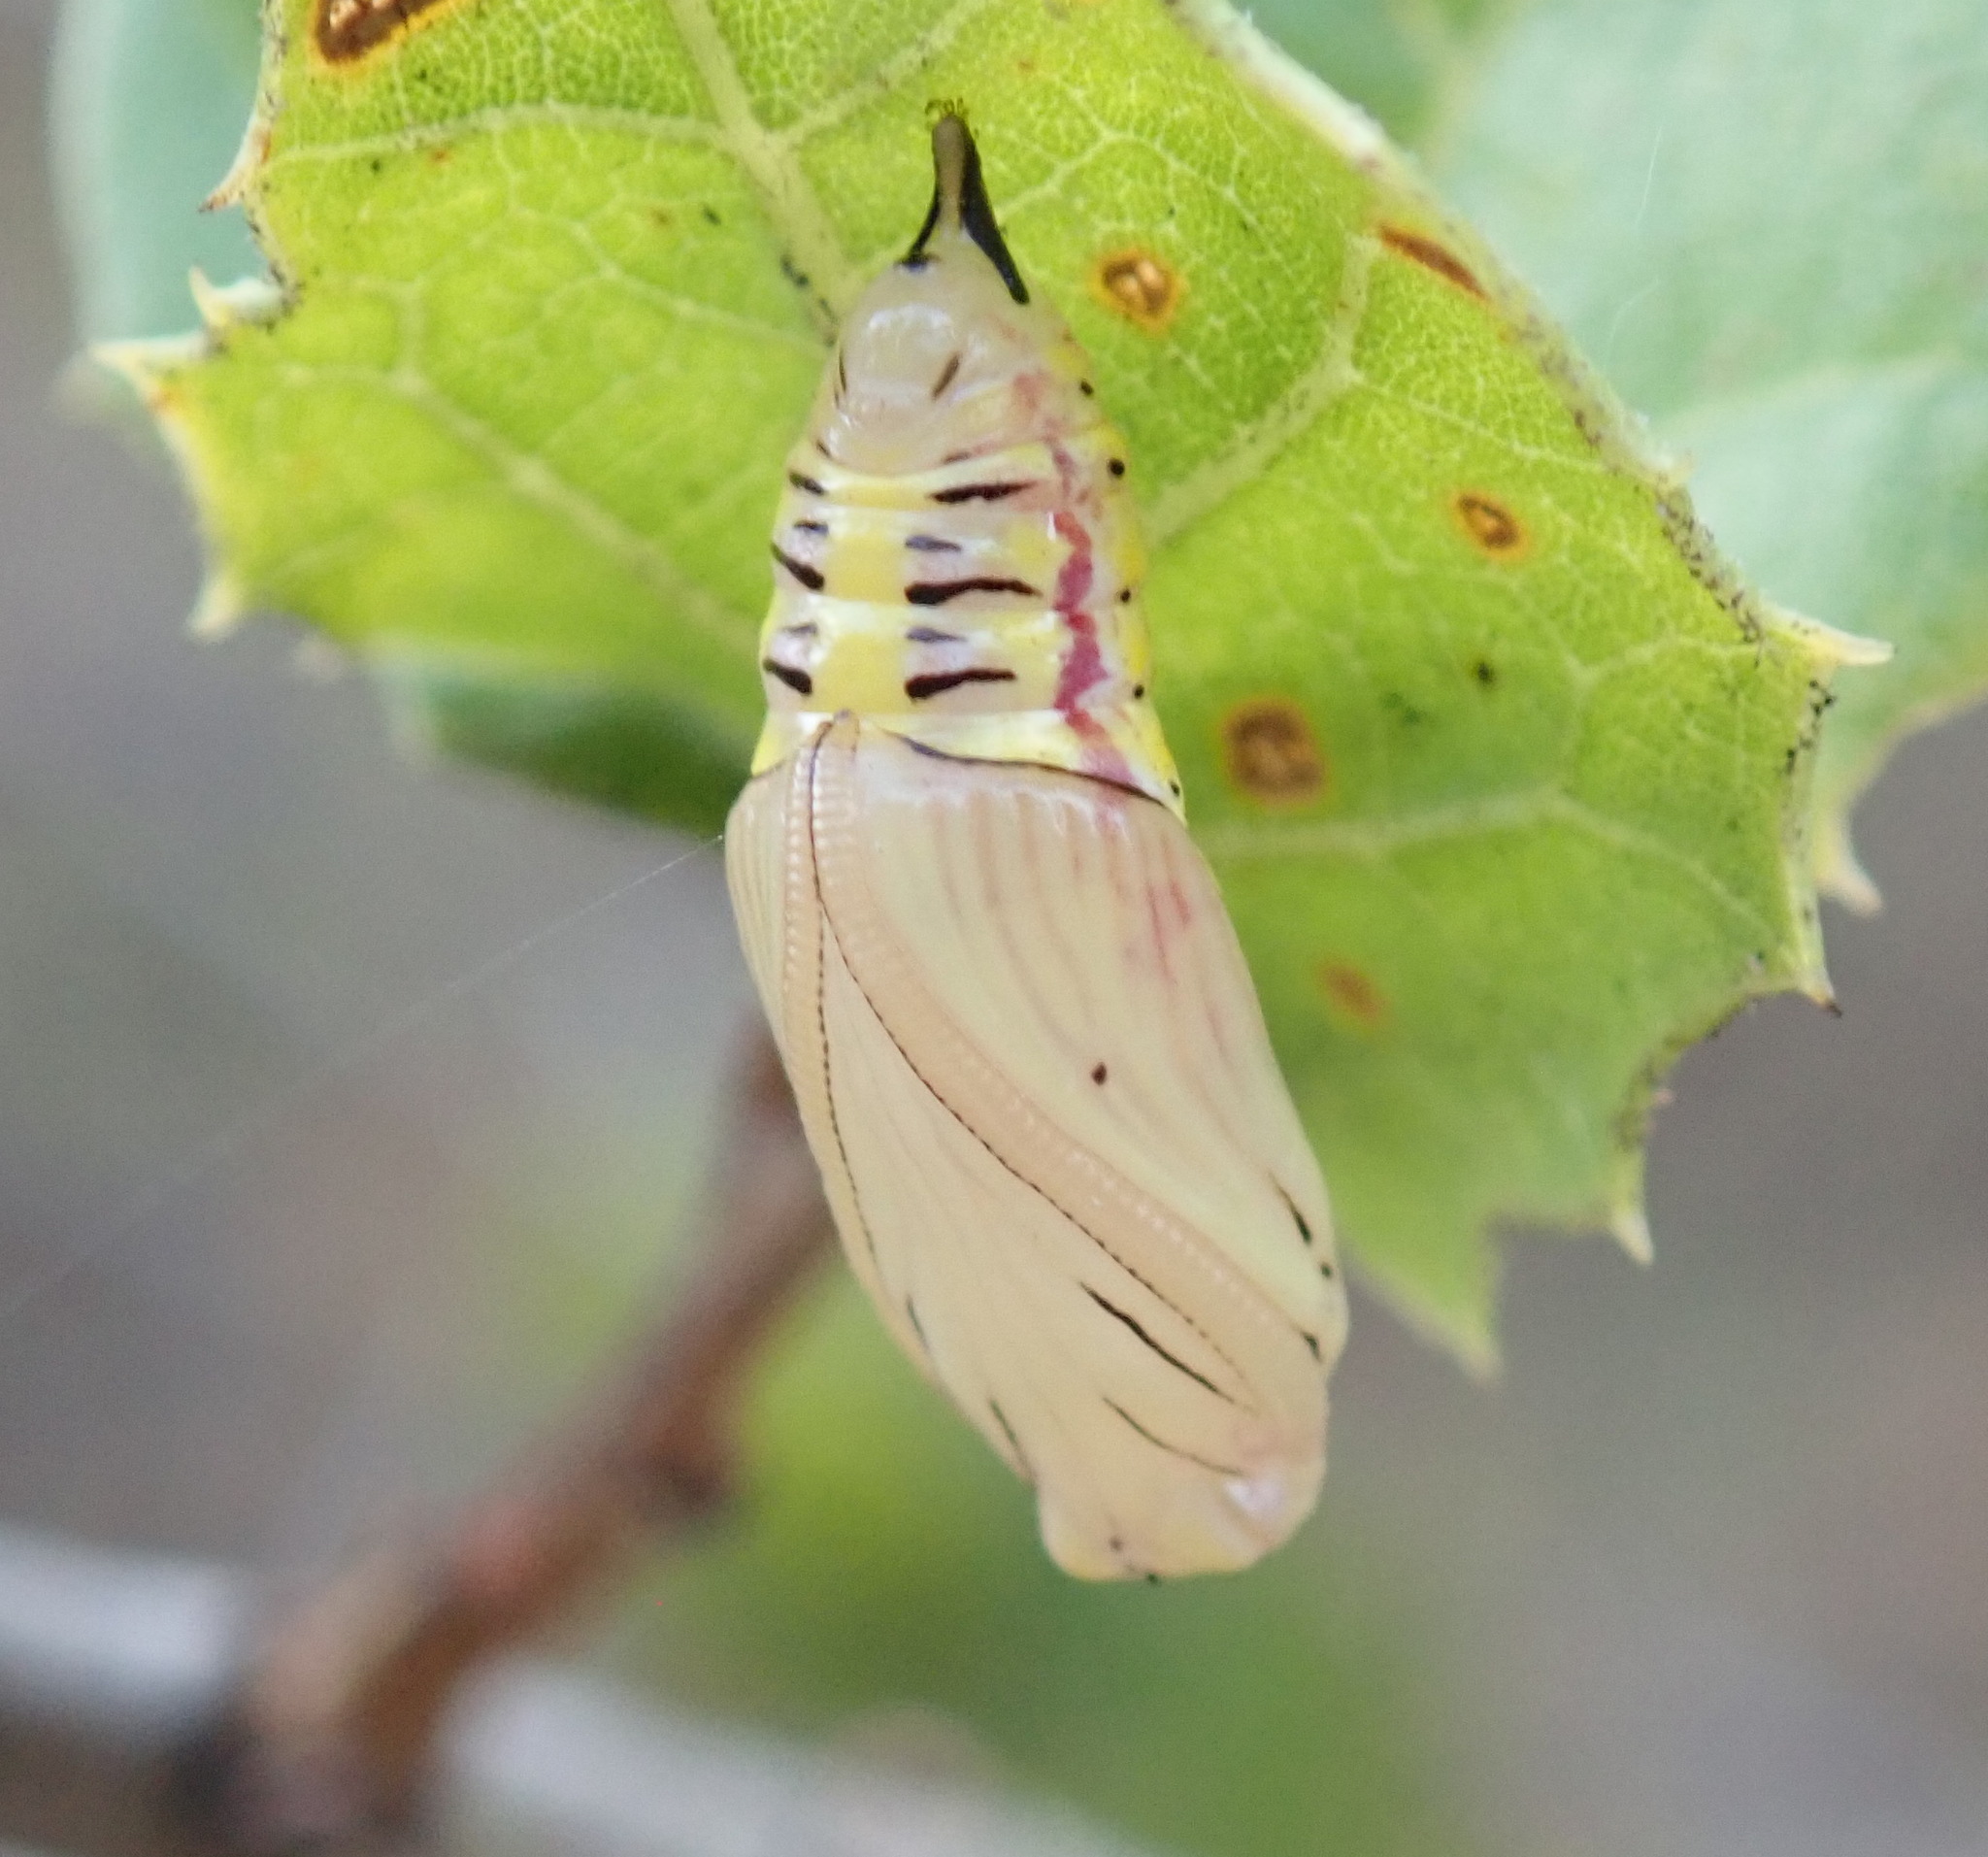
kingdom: Animalia
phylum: Arthropoda
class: Insecta
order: Lepidoptera
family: Notodontidae
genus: Phryganidia
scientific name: Phryganidia californica
